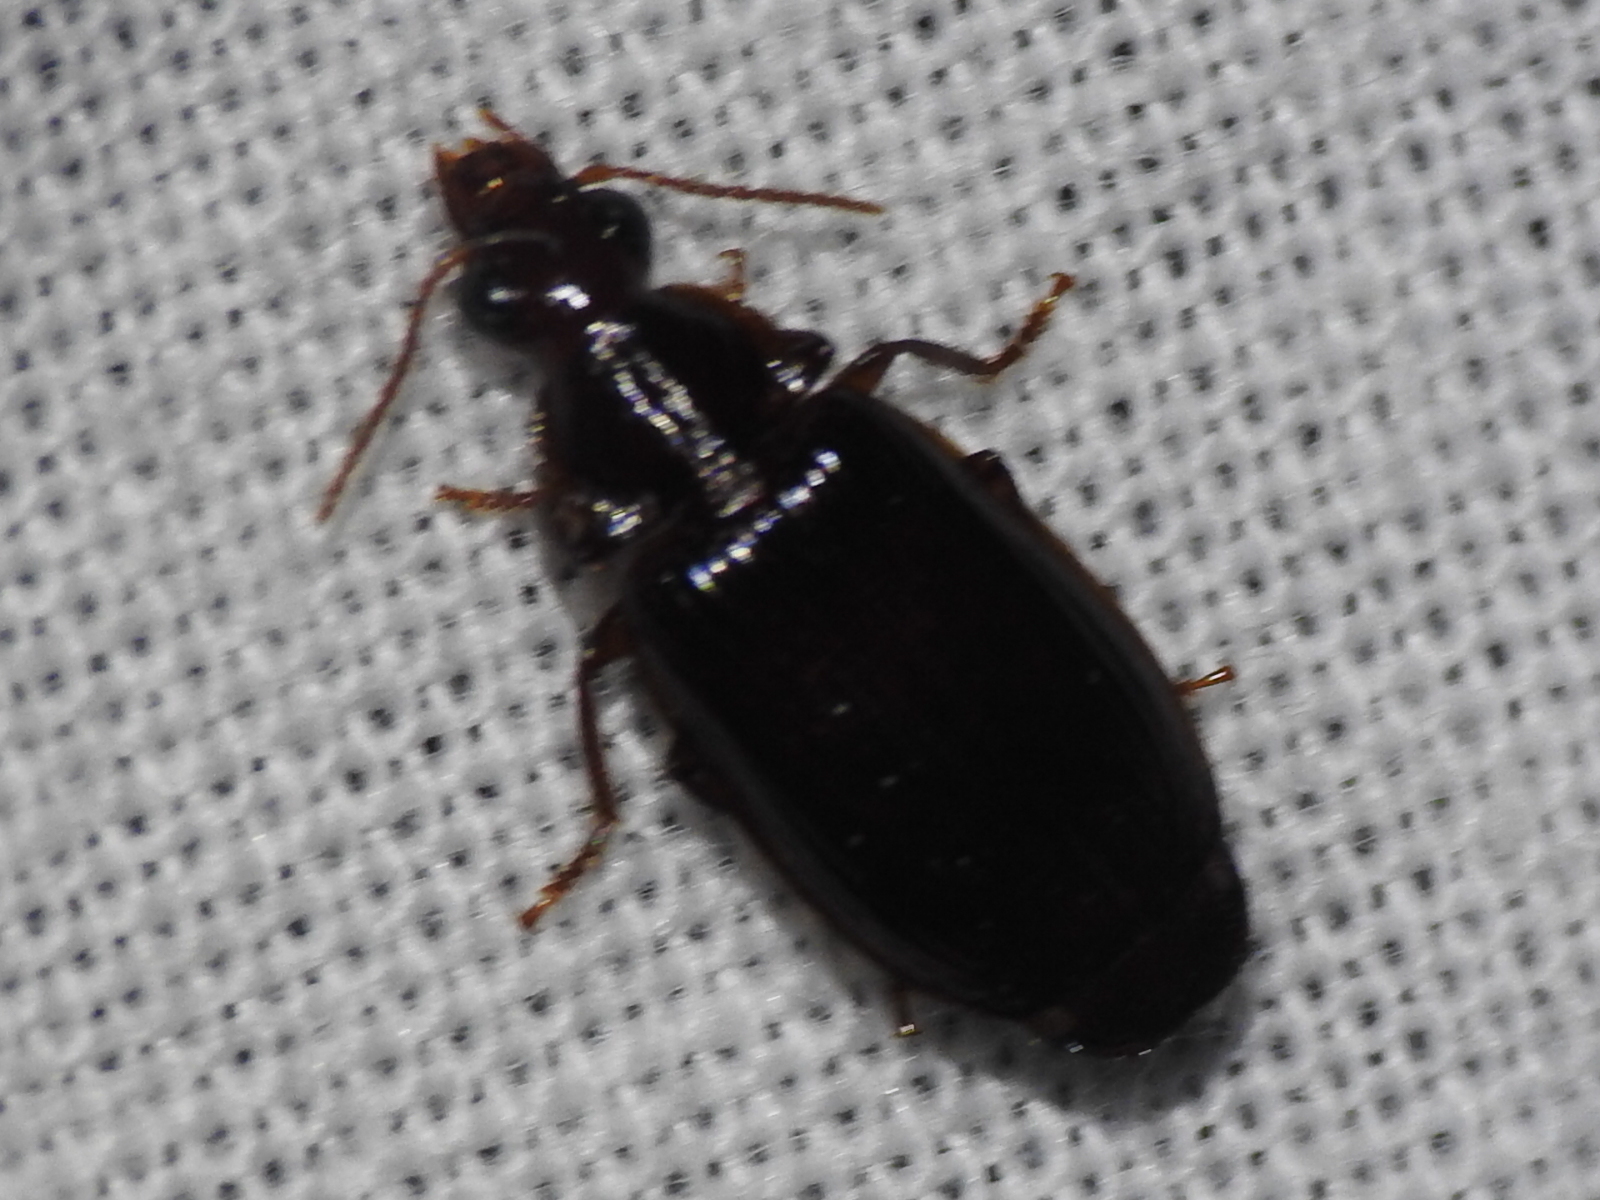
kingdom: Animalia
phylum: Arthropoda
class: Insecta
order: Coleoptera
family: Carabidae
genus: Plochionus
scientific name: Plochionus timidus
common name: Timid harp ground beetle
